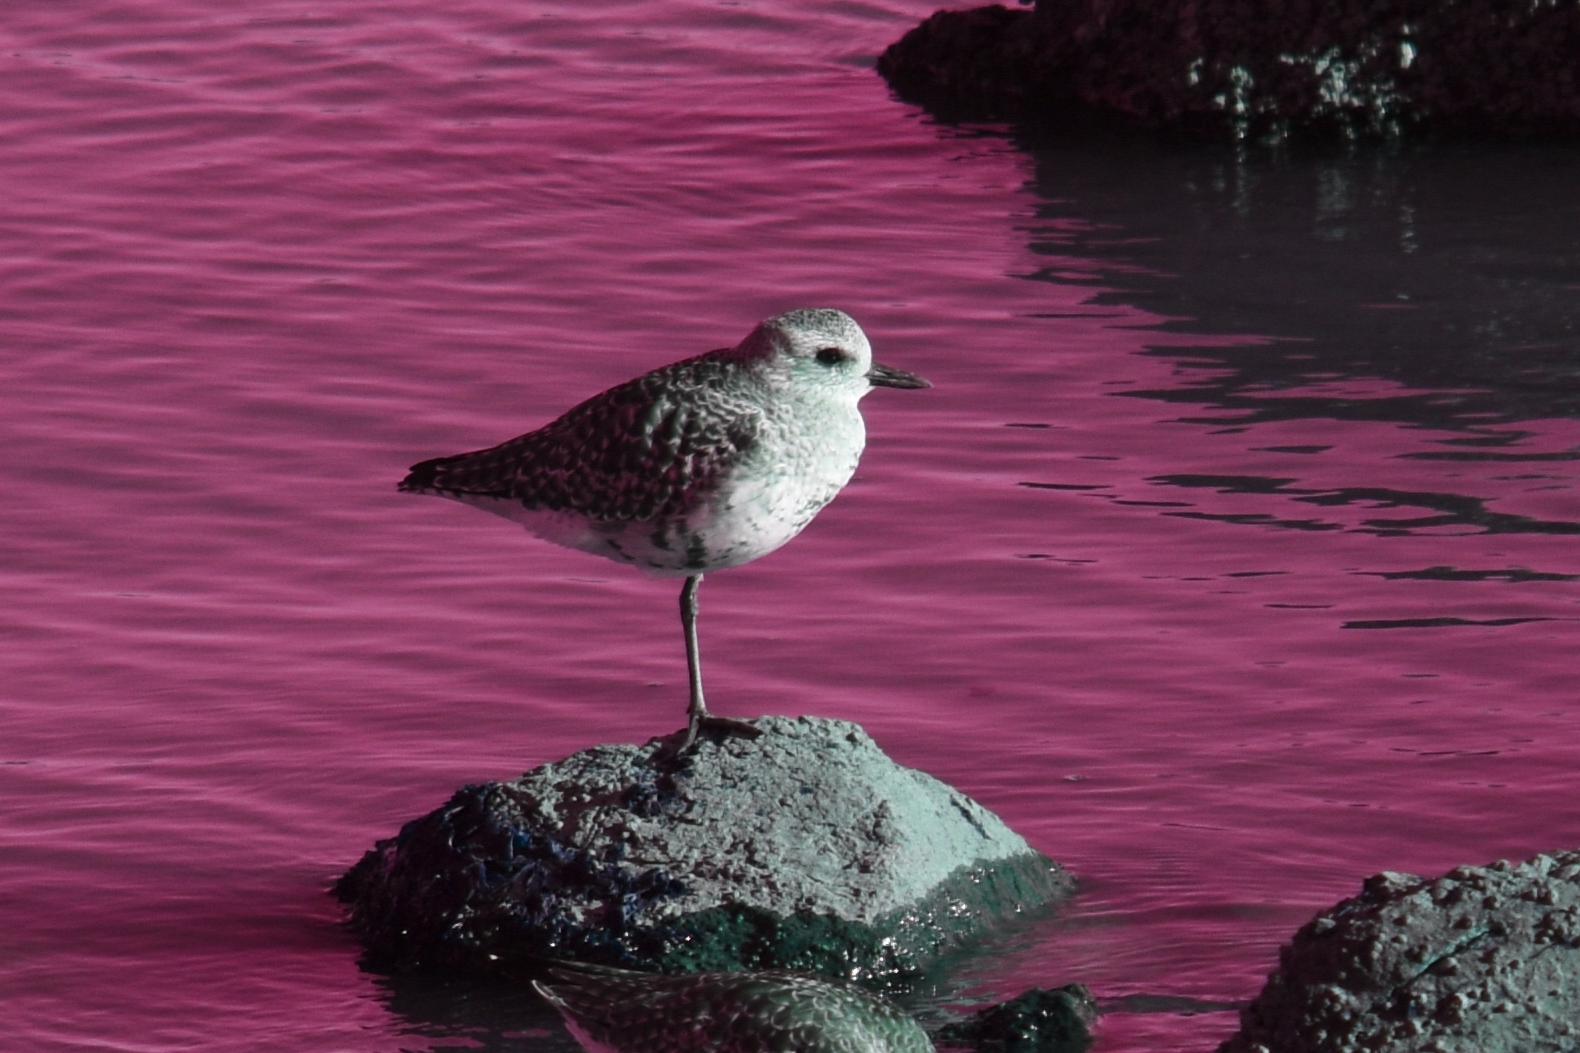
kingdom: Animalia
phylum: Chordata
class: Aves
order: Charadriiformes
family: Charadriidae
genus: Pluvialis
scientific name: Pluvialis squatarola
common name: Grey plover
